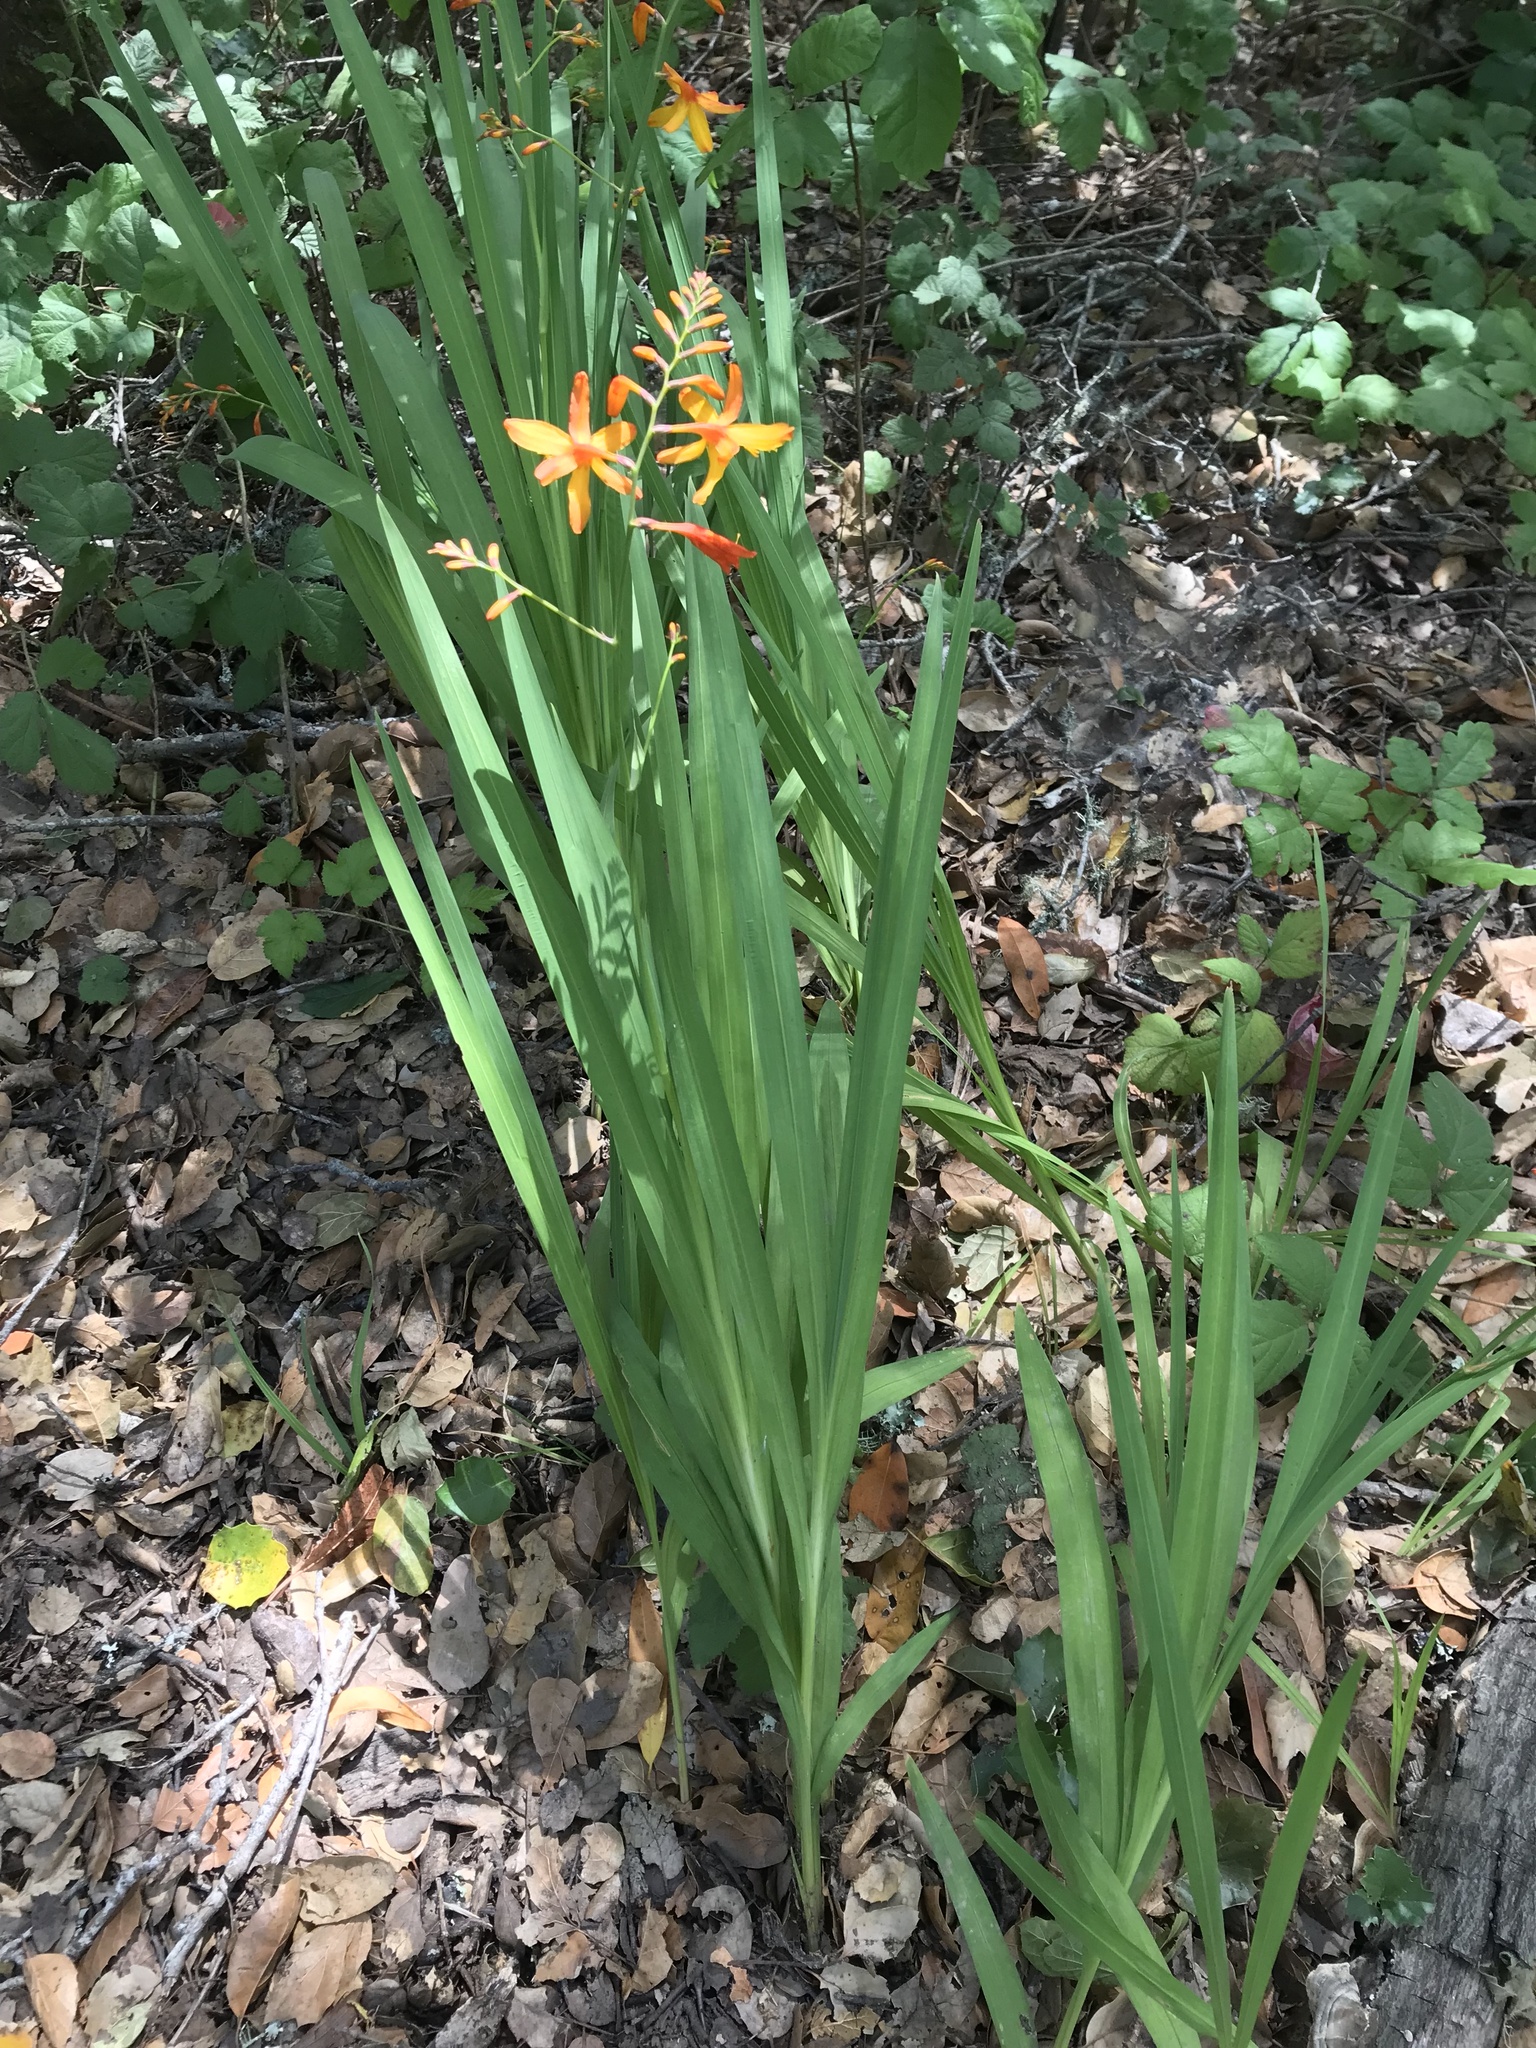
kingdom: Plantae
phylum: Tracheophyta
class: Liliopsida
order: Asparagales
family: Iridaceae
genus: Crocosmia
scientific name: Crocosmia crocosmiiflora
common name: Montbretia
